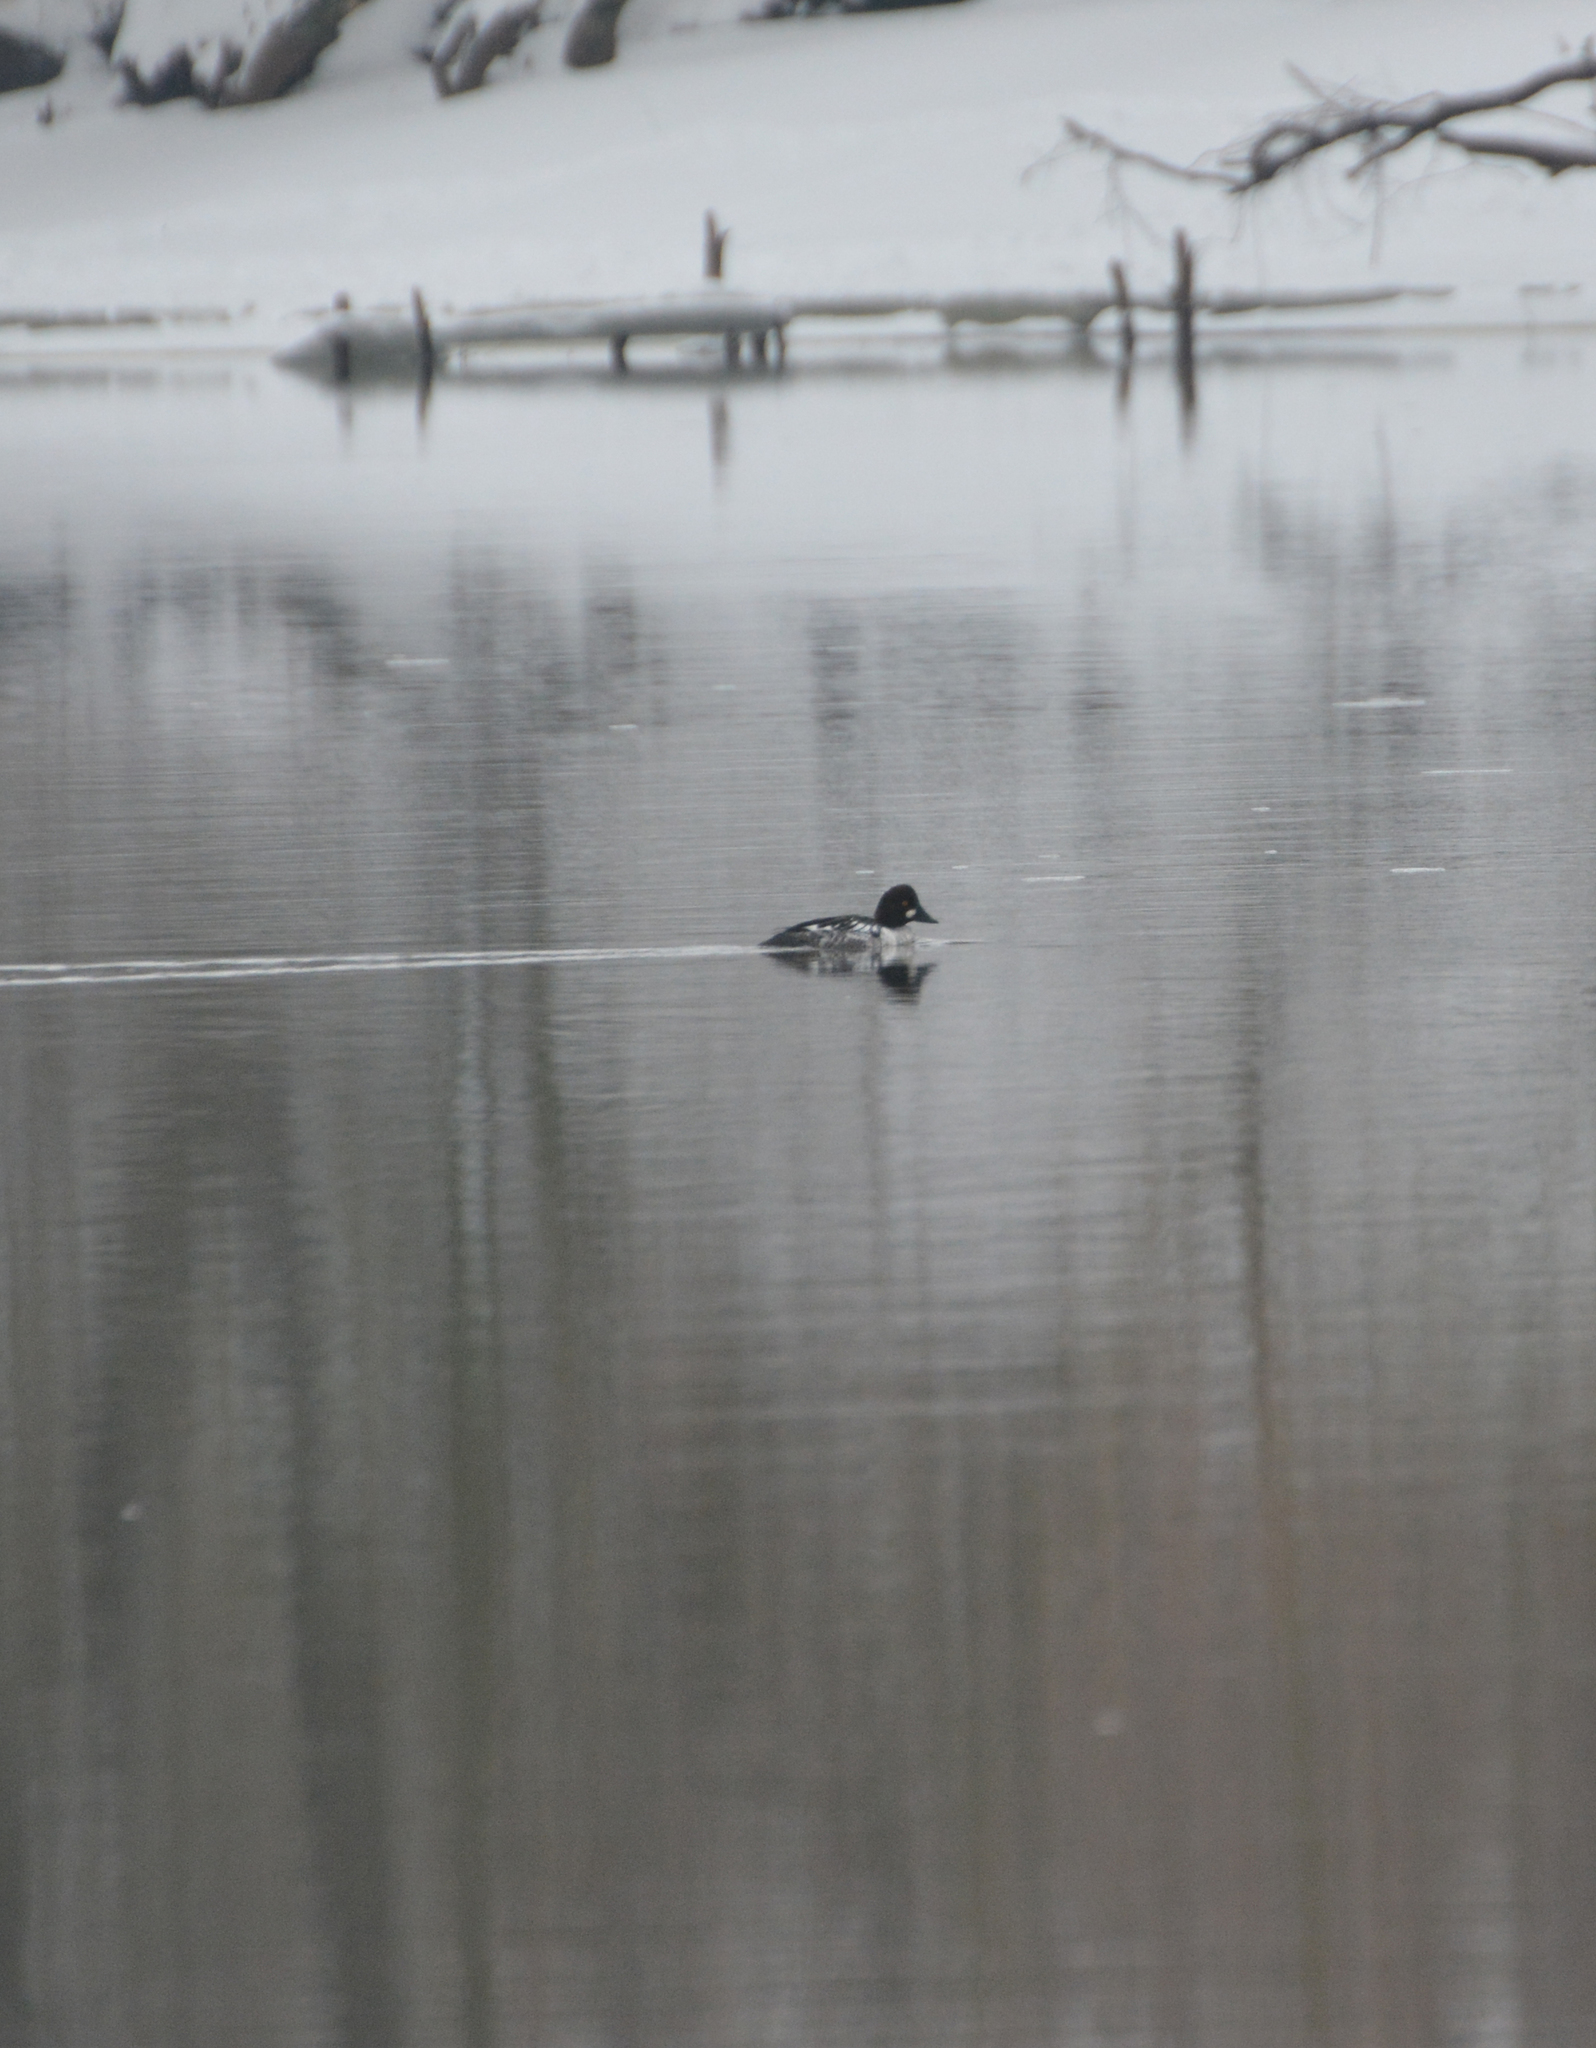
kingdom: Animalia
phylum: Chordata
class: Aves
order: Anseriformes
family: Anatidae
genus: Bucephala
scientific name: Bucephala clangula
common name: Common goldeneye
